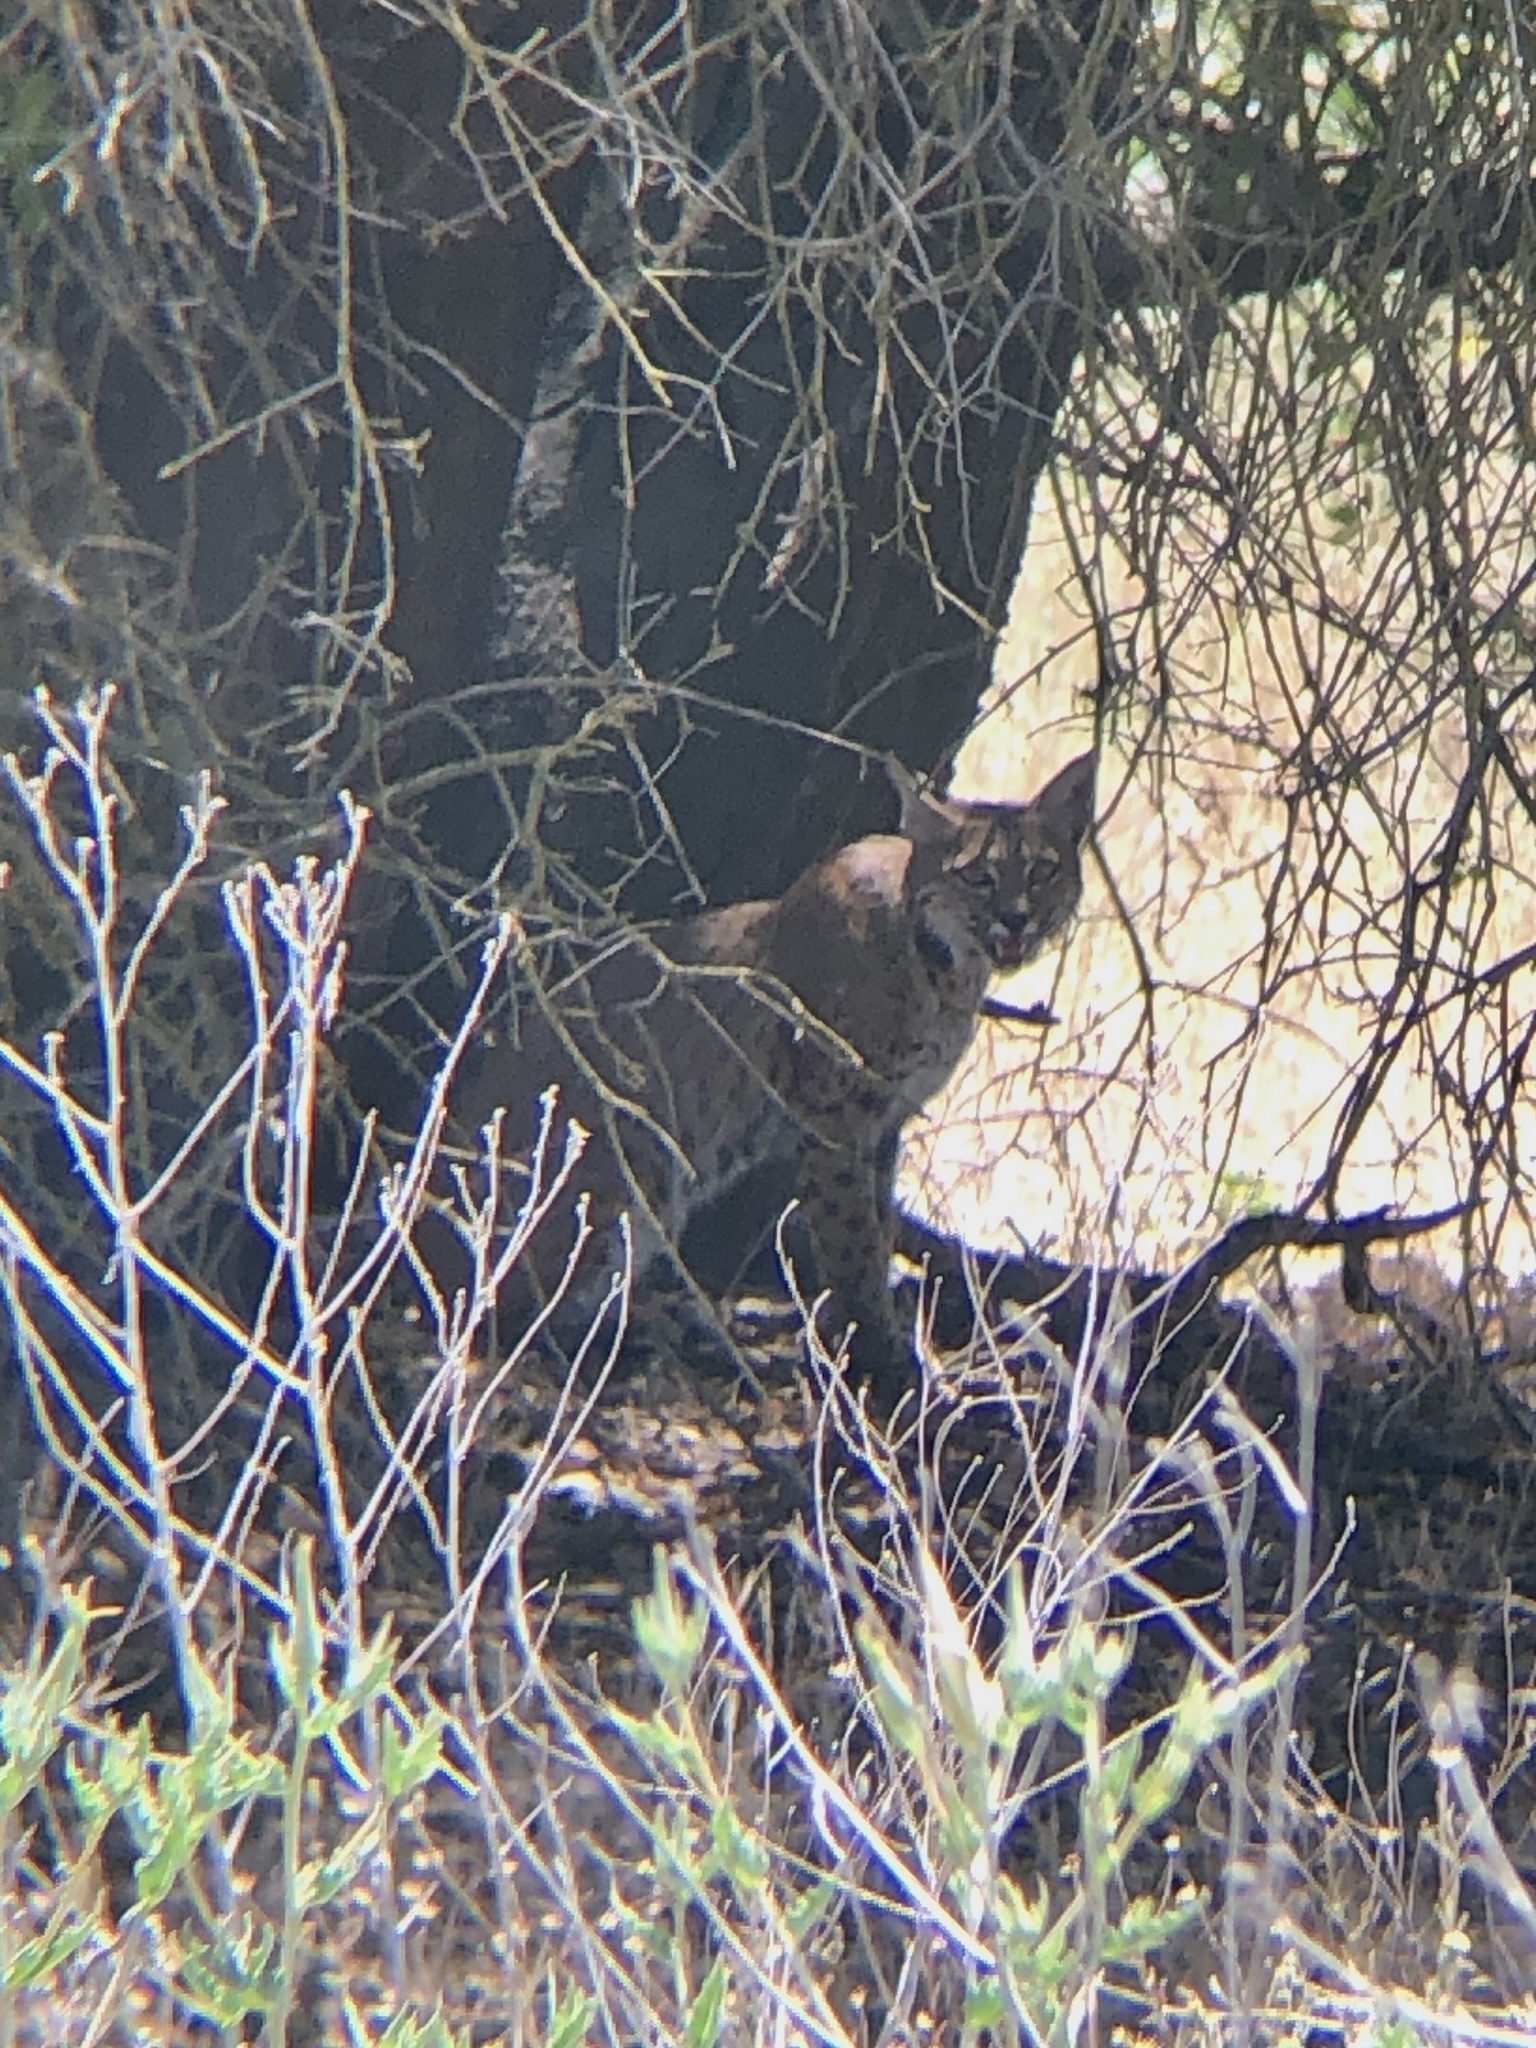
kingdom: Animalia
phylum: Chordata
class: Mammalia
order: Carnivora
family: Felidae
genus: Lynx
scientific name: Lynx rufus
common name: Bobcat
